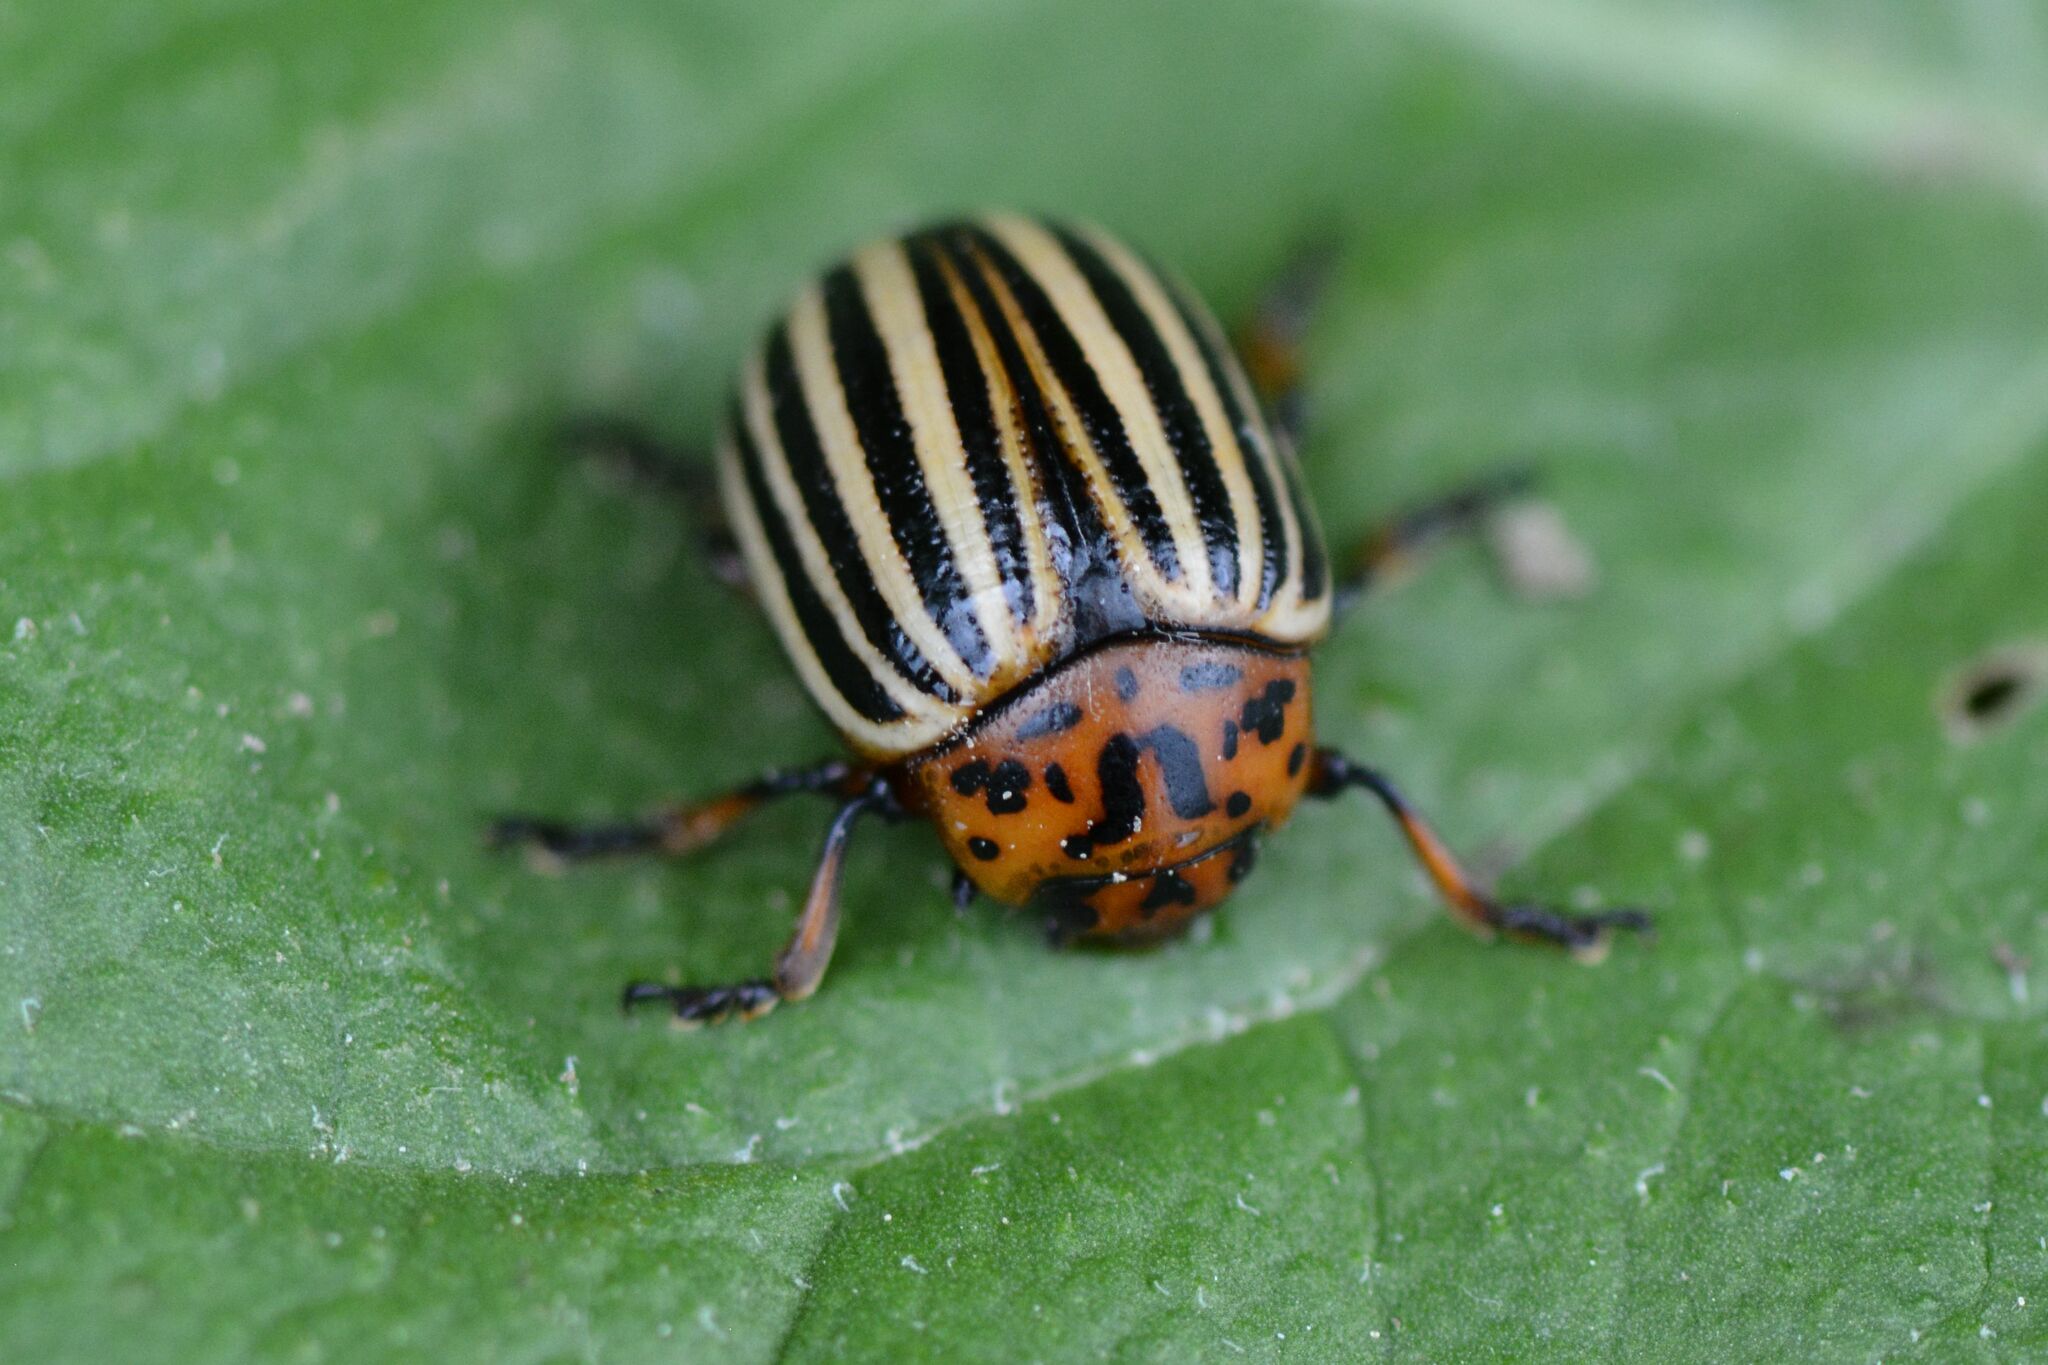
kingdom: Animalia
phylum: Arthropoda
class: Insecta
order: Coleoptera
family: Chrysomelidae
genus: Leptinotarsa
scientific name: Leptinotarsa decemlineata
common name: Colorado potato beetle
